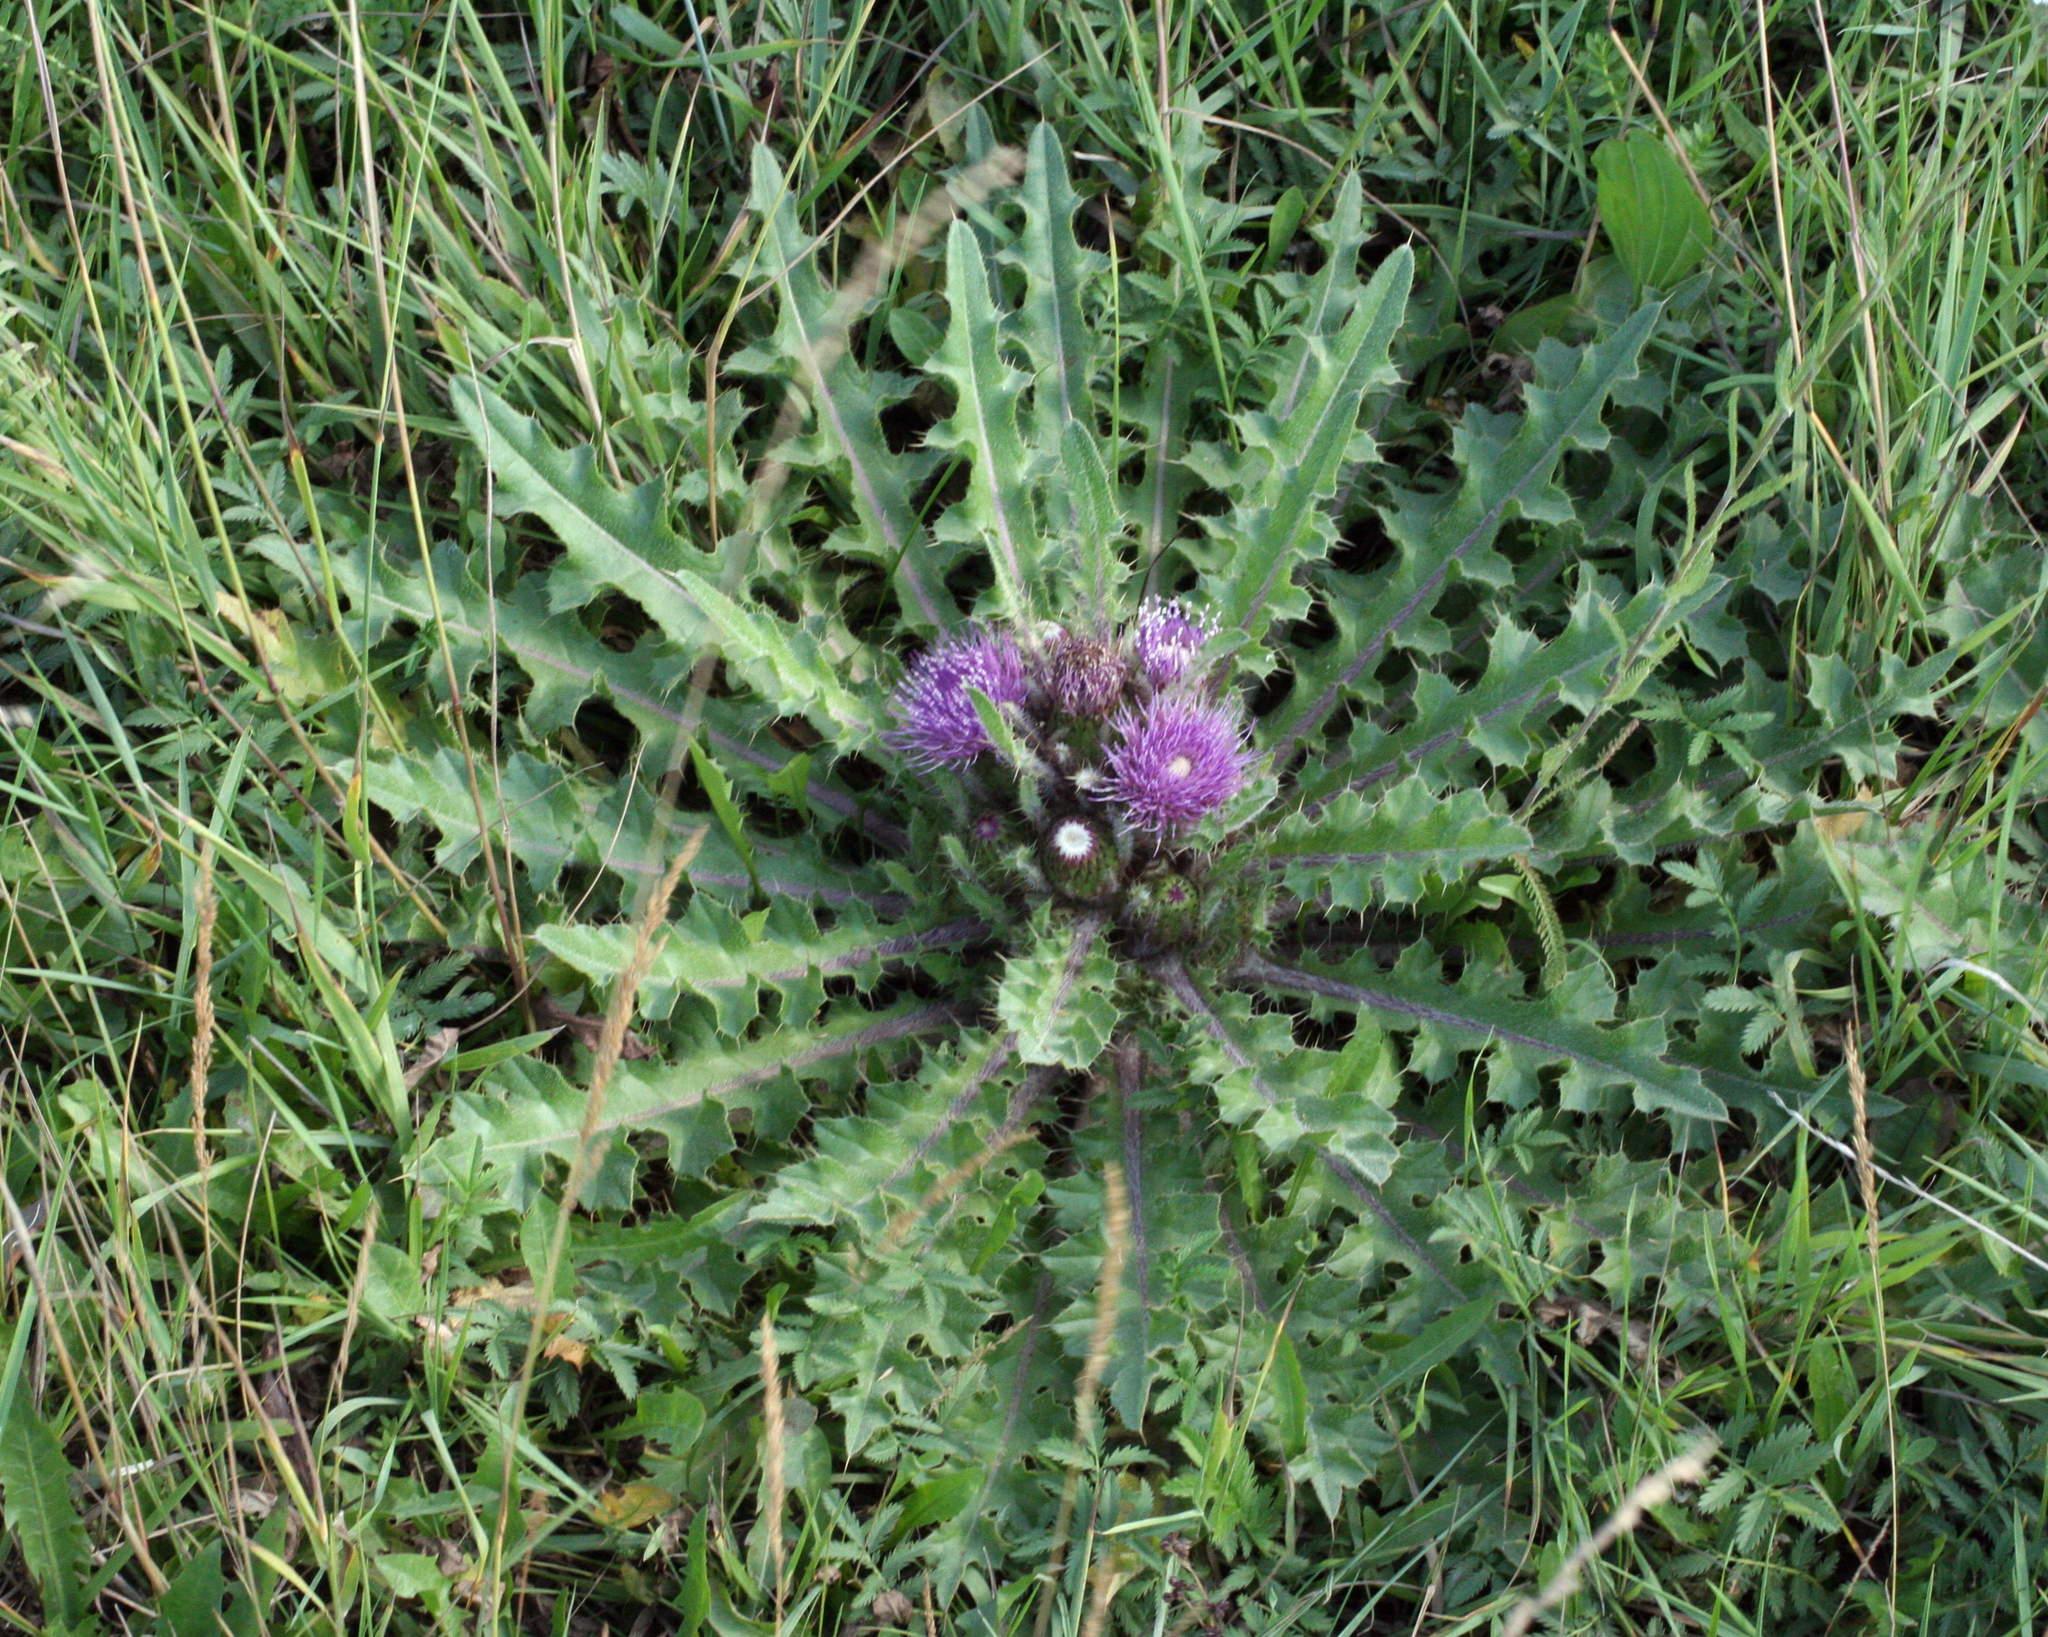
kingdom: Plantae
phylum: Tracheophyta
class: Magnoliopsida
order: Asterales
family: Asteraceae
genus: Cirsium
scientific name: Cirsium esculentum
